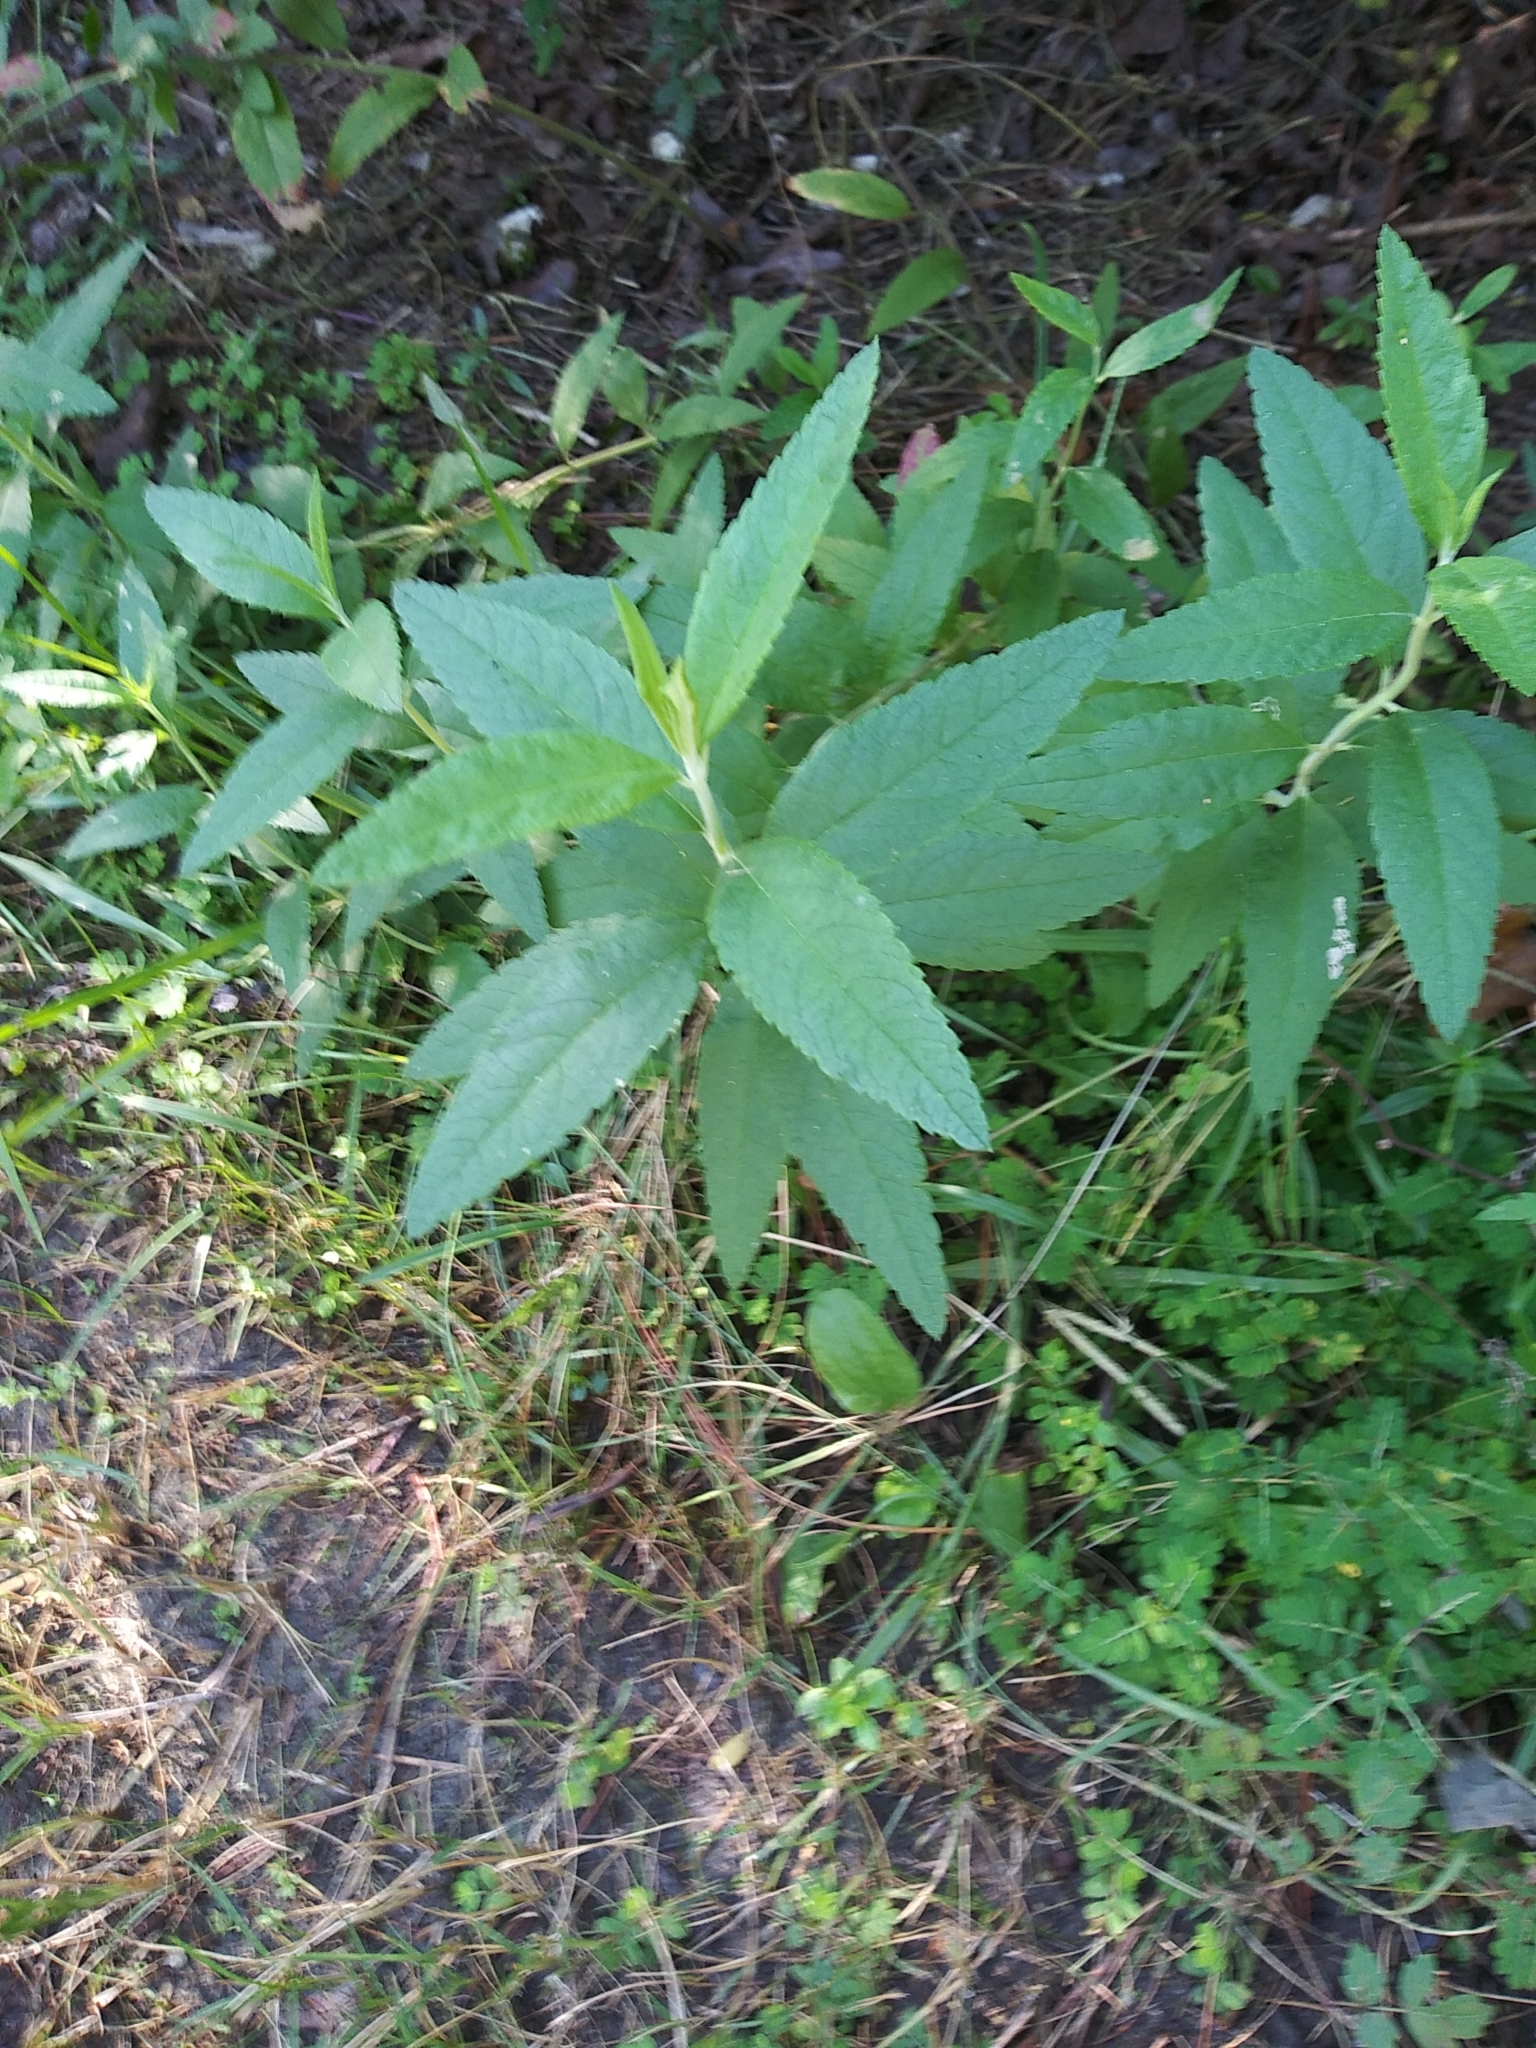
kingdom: Plantae
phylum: Tracheophyta
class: Magnoliopsida
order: Lamiales
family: Lamiaceae
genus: Teucrium
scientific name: Teucrium canadense
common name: American germander
